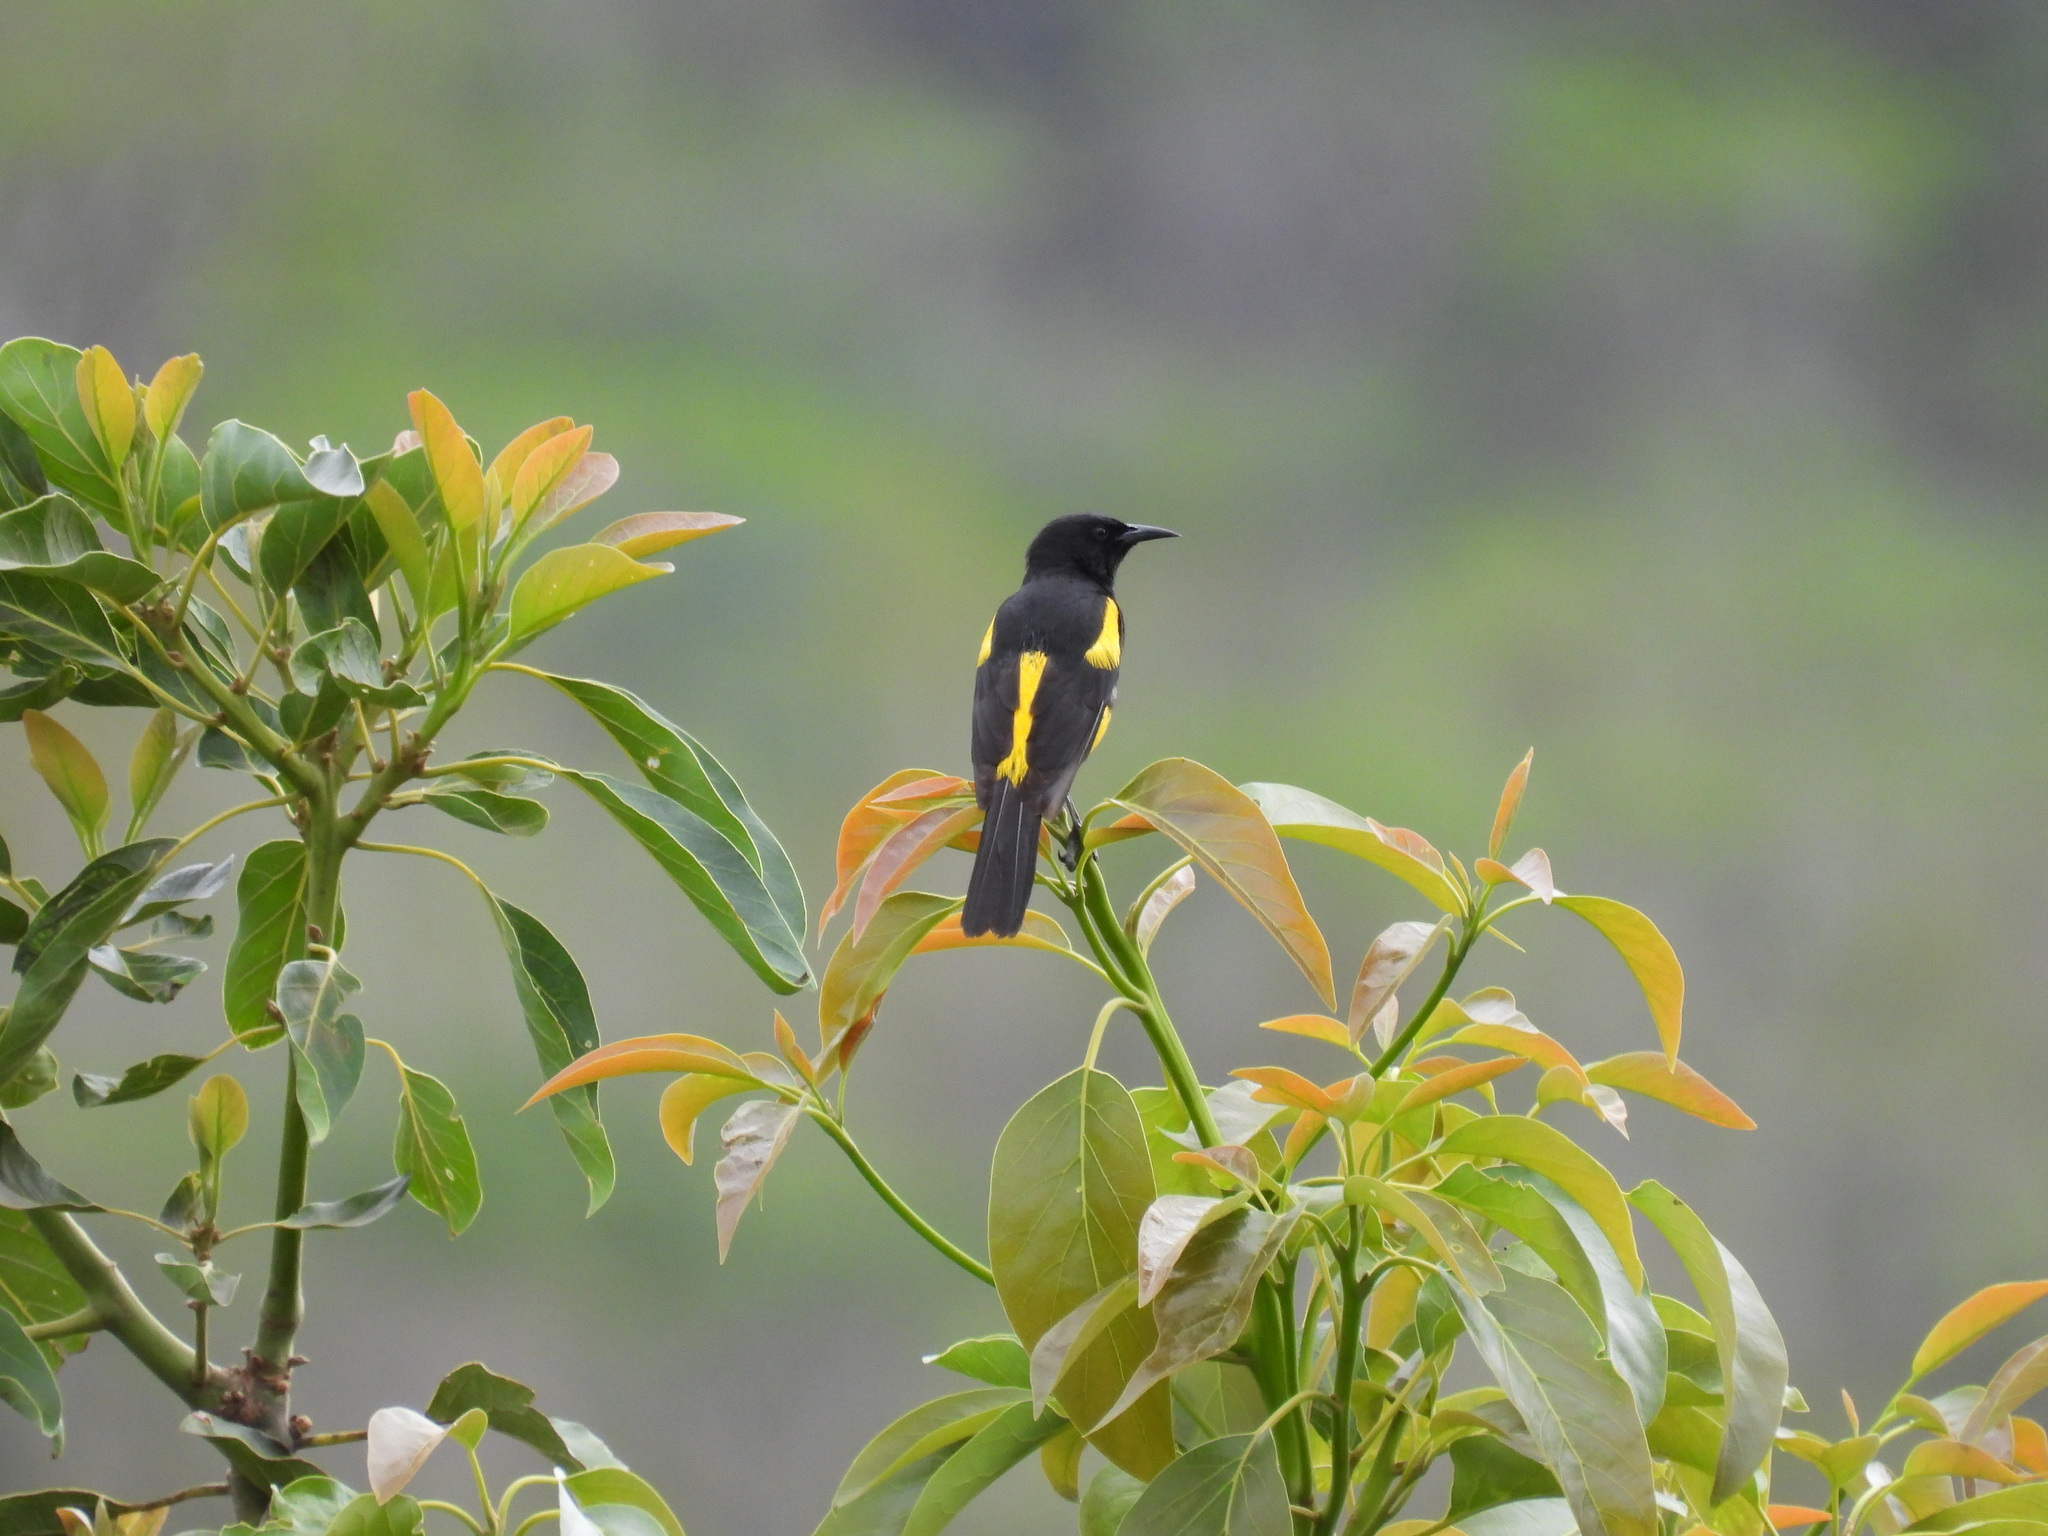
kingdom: Animalia
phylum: Chordata
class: Aves
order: Passeriformes
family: Icteridae
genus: Icterus
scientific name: Icterus dominicensis
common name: Hispaniolan oriole
